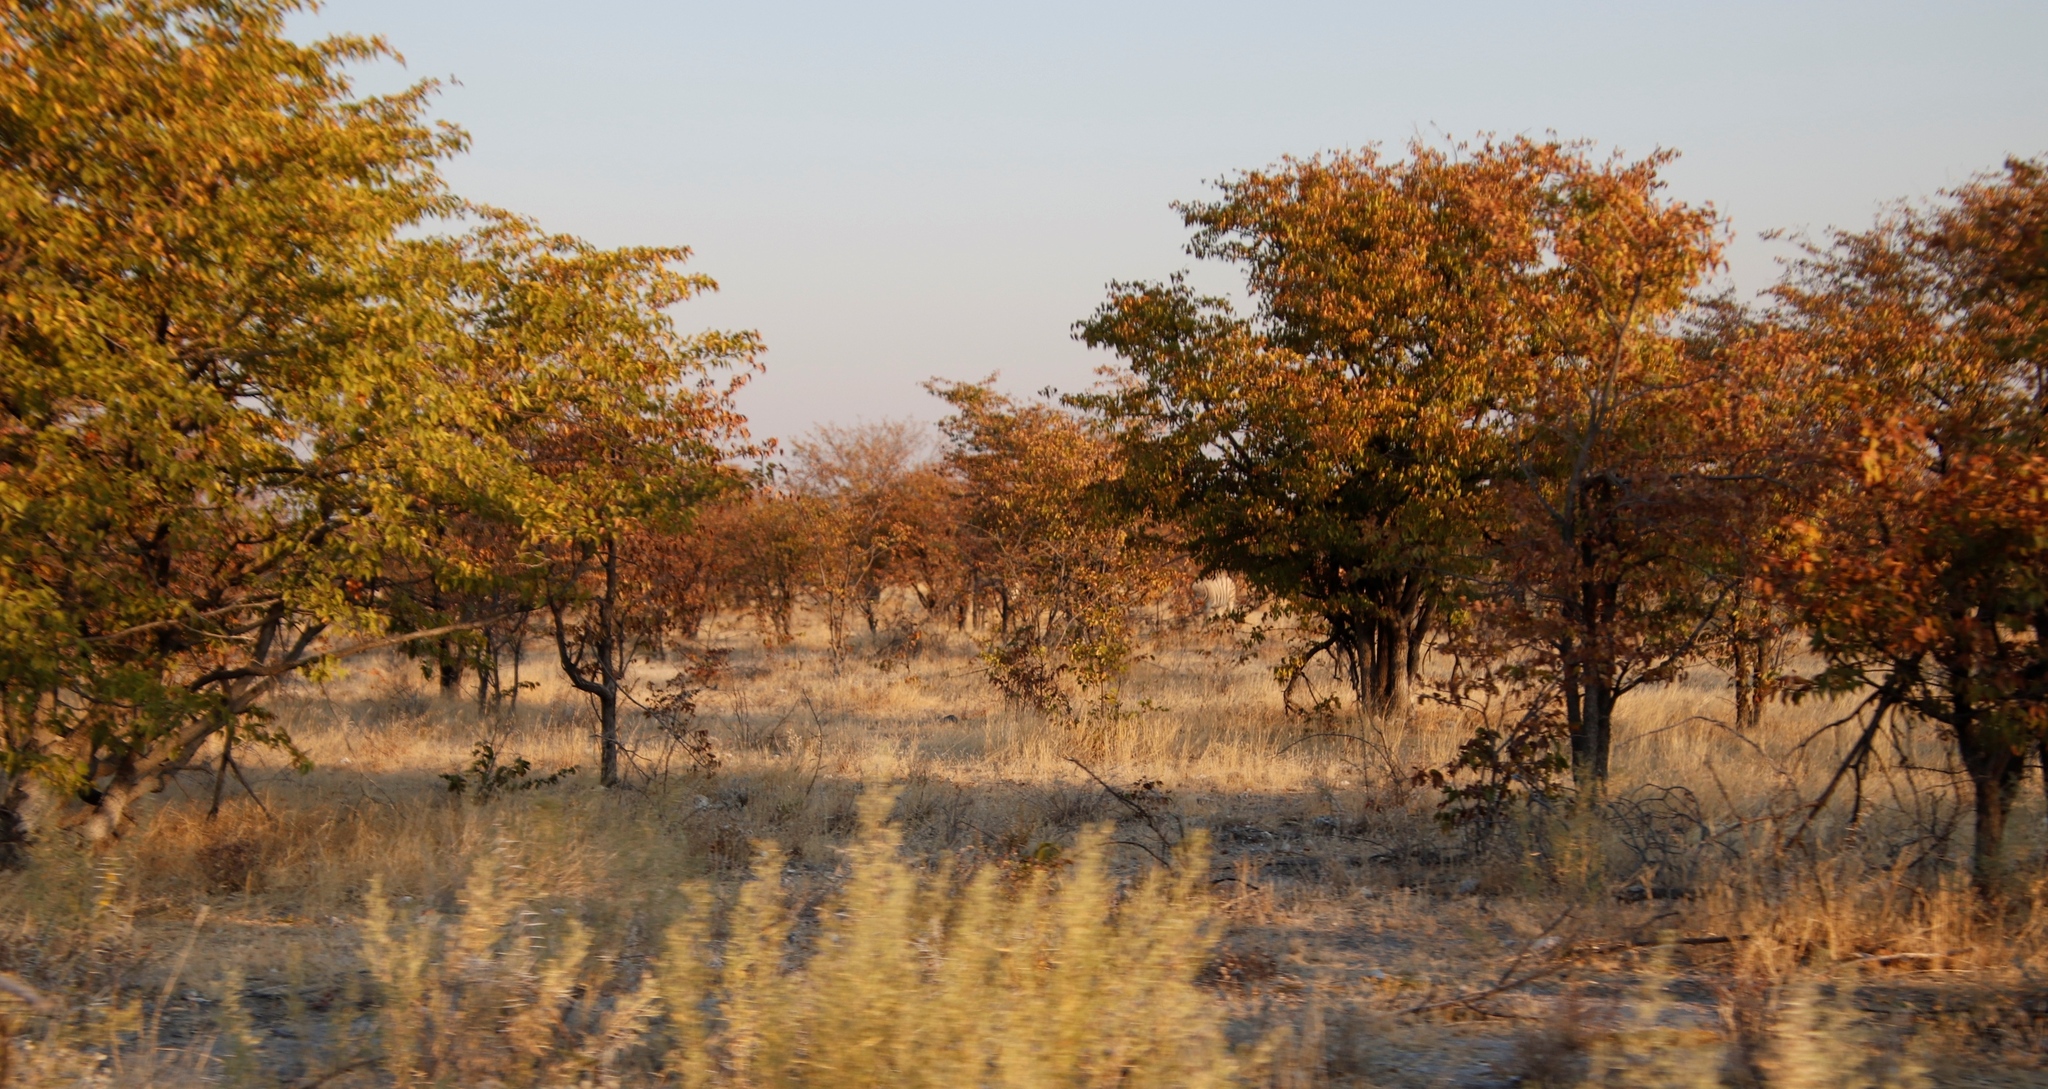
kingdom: Plantae
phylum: Tracheophyta
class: Magnoliopsida
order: Fabales
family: Fabaceae
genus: Colophospermum
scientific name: Colophospermum mopane
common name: Mopane
